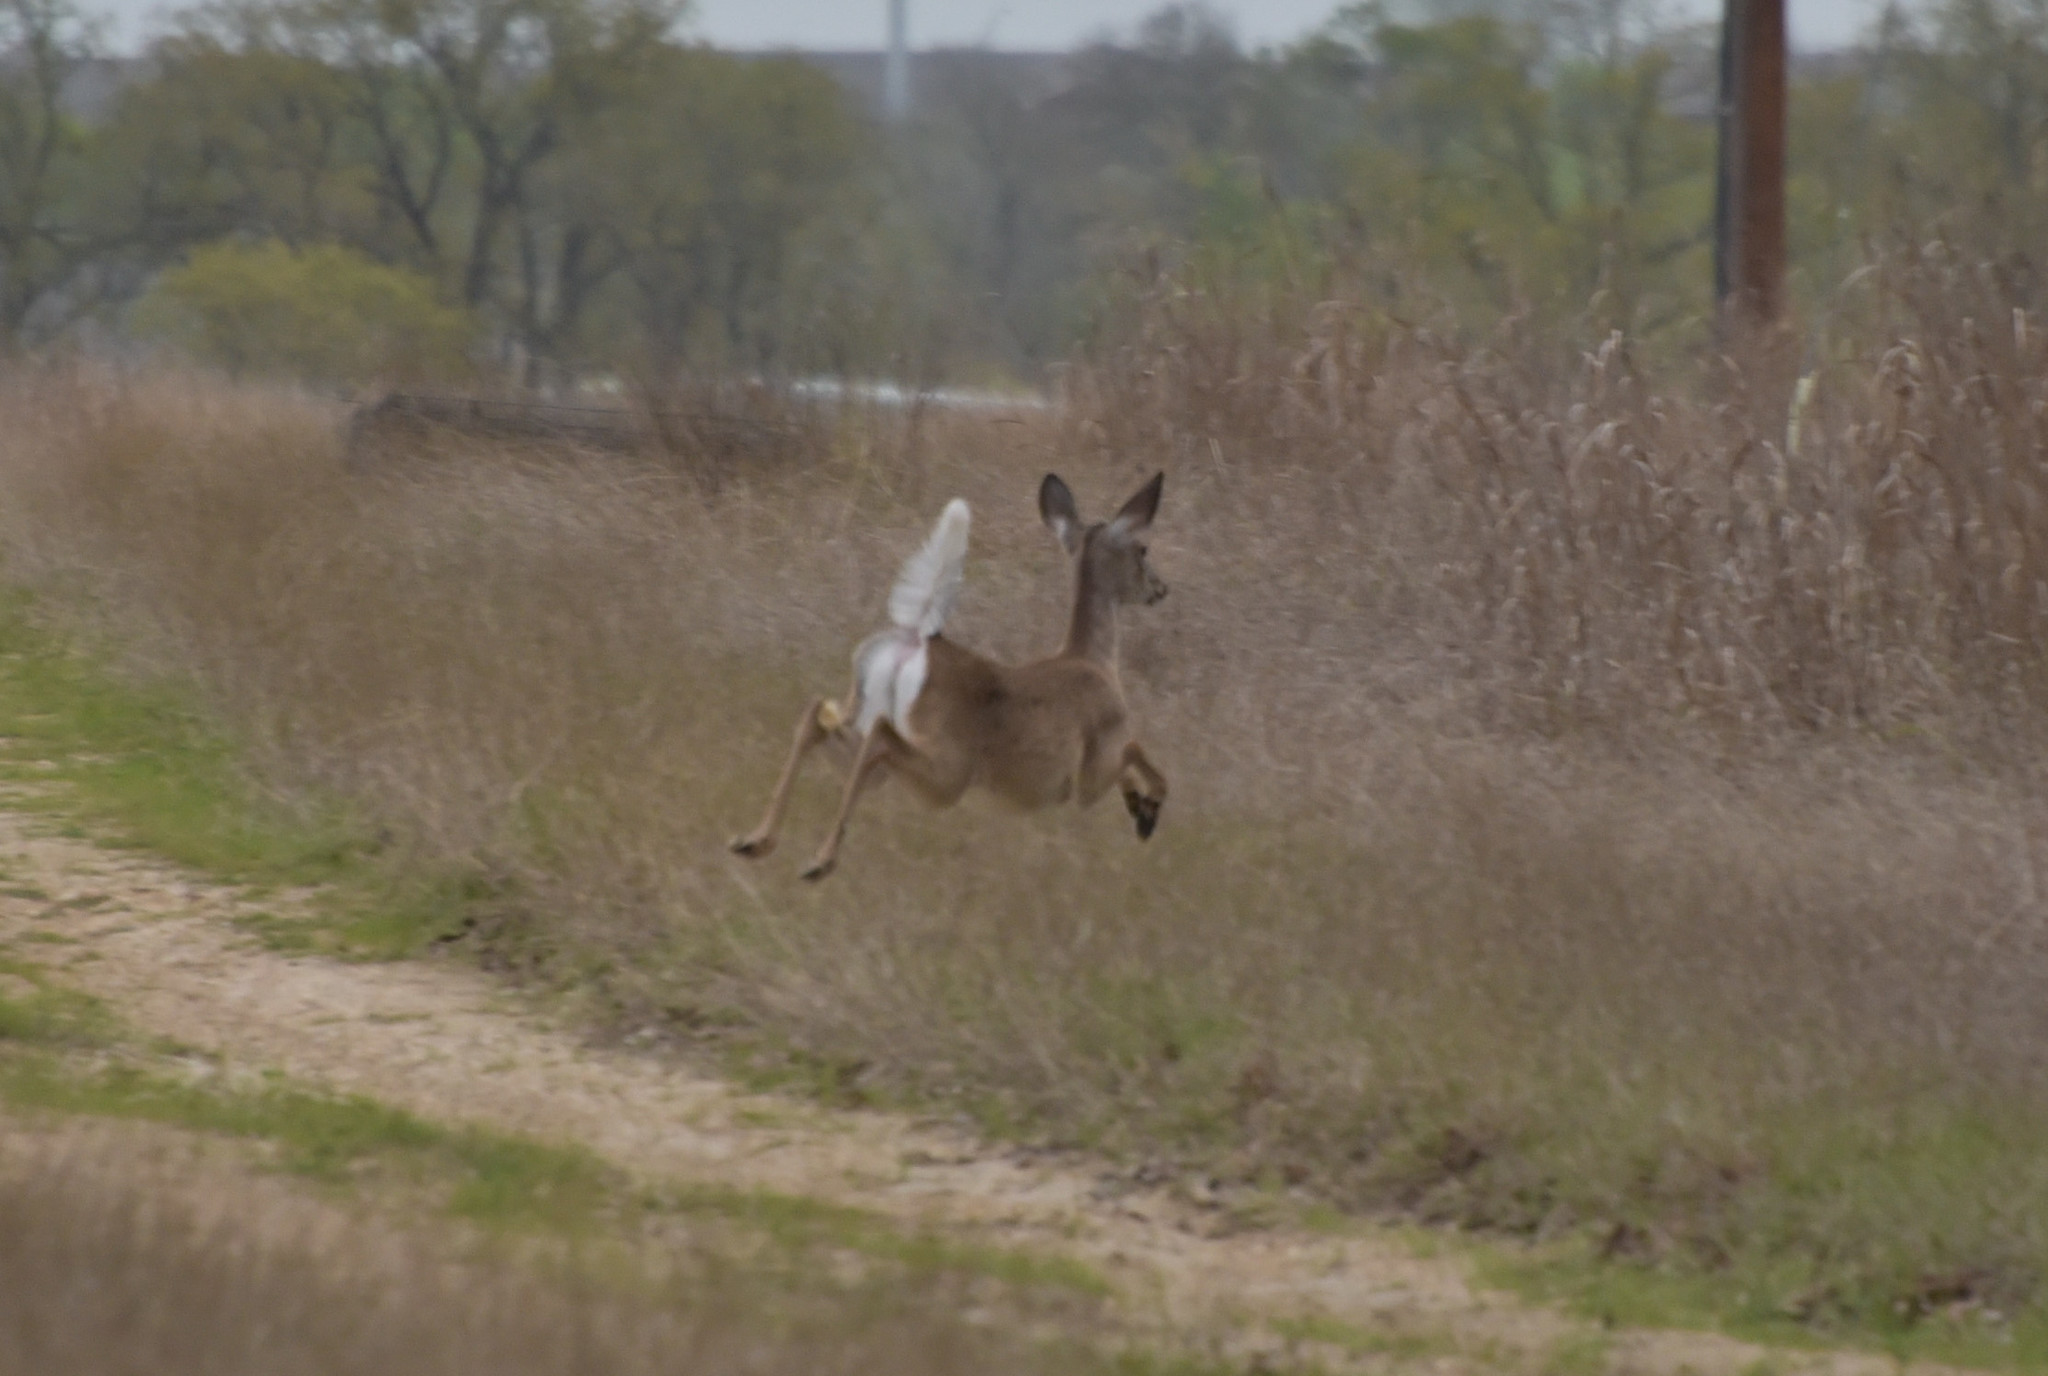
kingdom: Animalia
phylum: Chordata
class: Mammalia
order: Artiodactyla
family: Cervidae
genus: Odocoileus
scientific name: Odocoileus virginianus
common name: White-tailed deer
